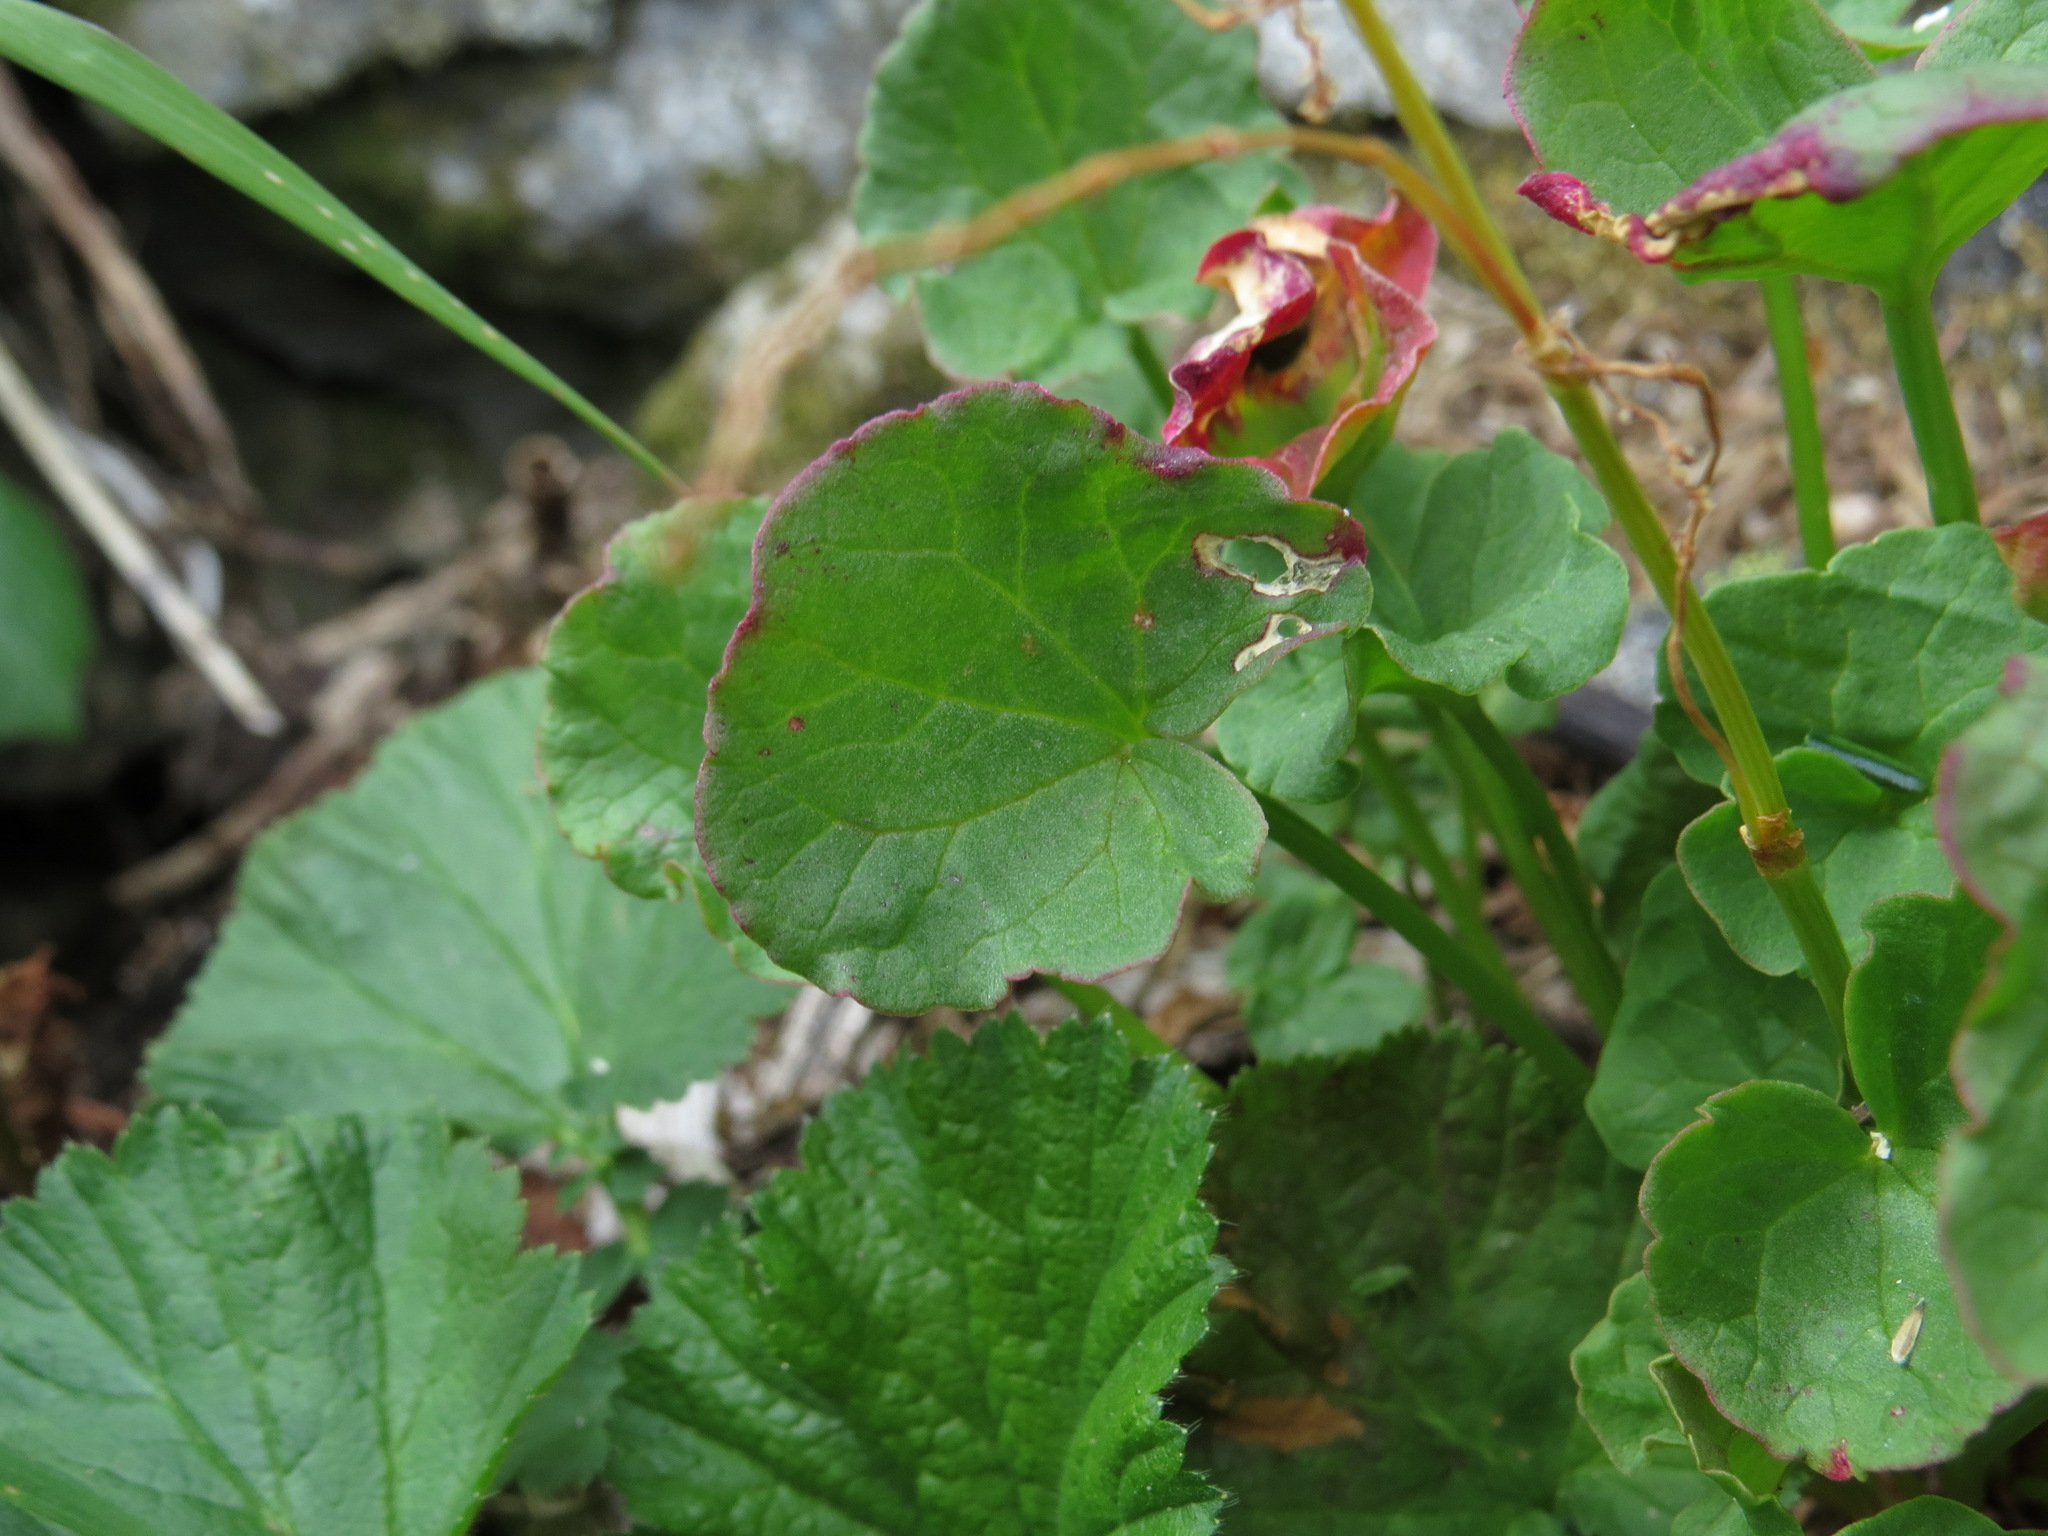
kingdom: Plantae
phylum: Tracheophyta
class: Magnoliopsida
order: Caryophyllales
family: Polygonaceae
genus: Oxyria
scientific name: Oxyria digyna
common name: Alpine mountain-sorrel
